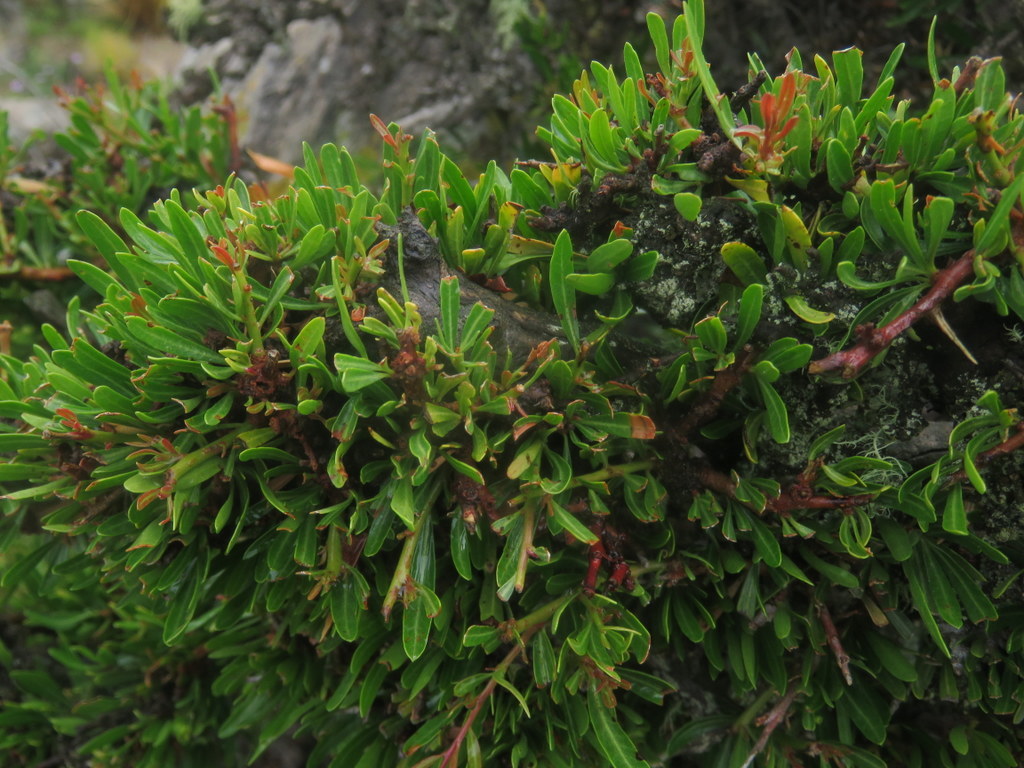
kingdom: Plantae
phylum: Tracheophyta
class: Magnoliopsida
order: Sapindales
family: Anacardiaceae
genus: Schinus
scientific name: Schinus pilifera
